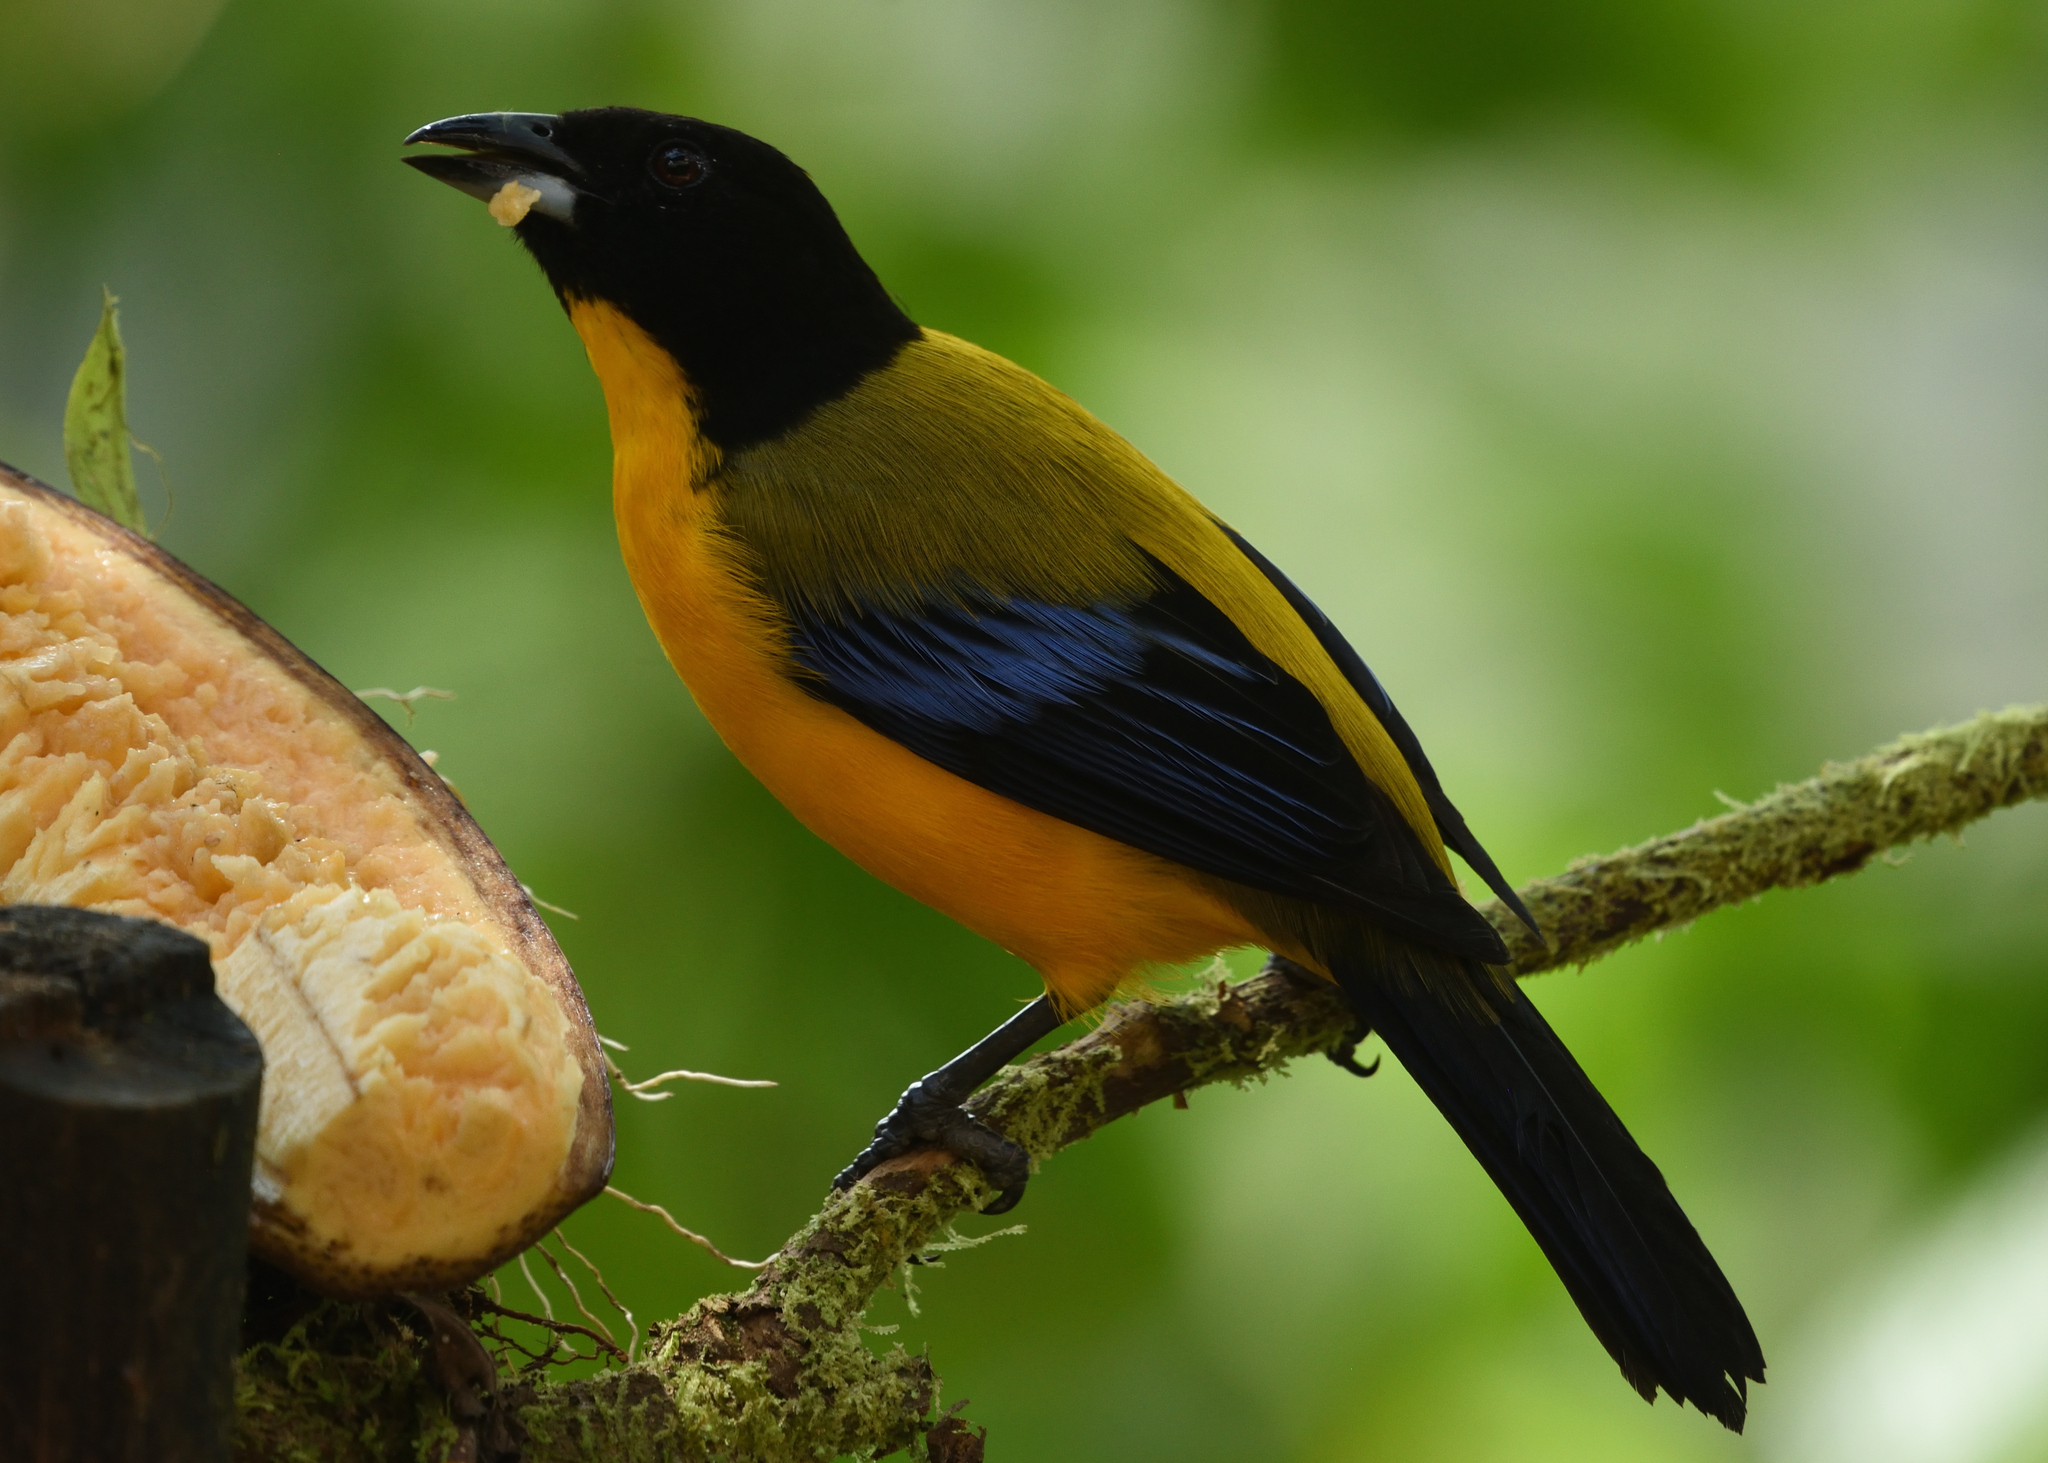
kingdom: Animalia
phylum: Chordata
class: Aves
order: Passeriformes
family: Thraupidae
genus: Anisognathus
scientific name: Anisognathus notabilis
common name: Black-chinned mountain tanager
